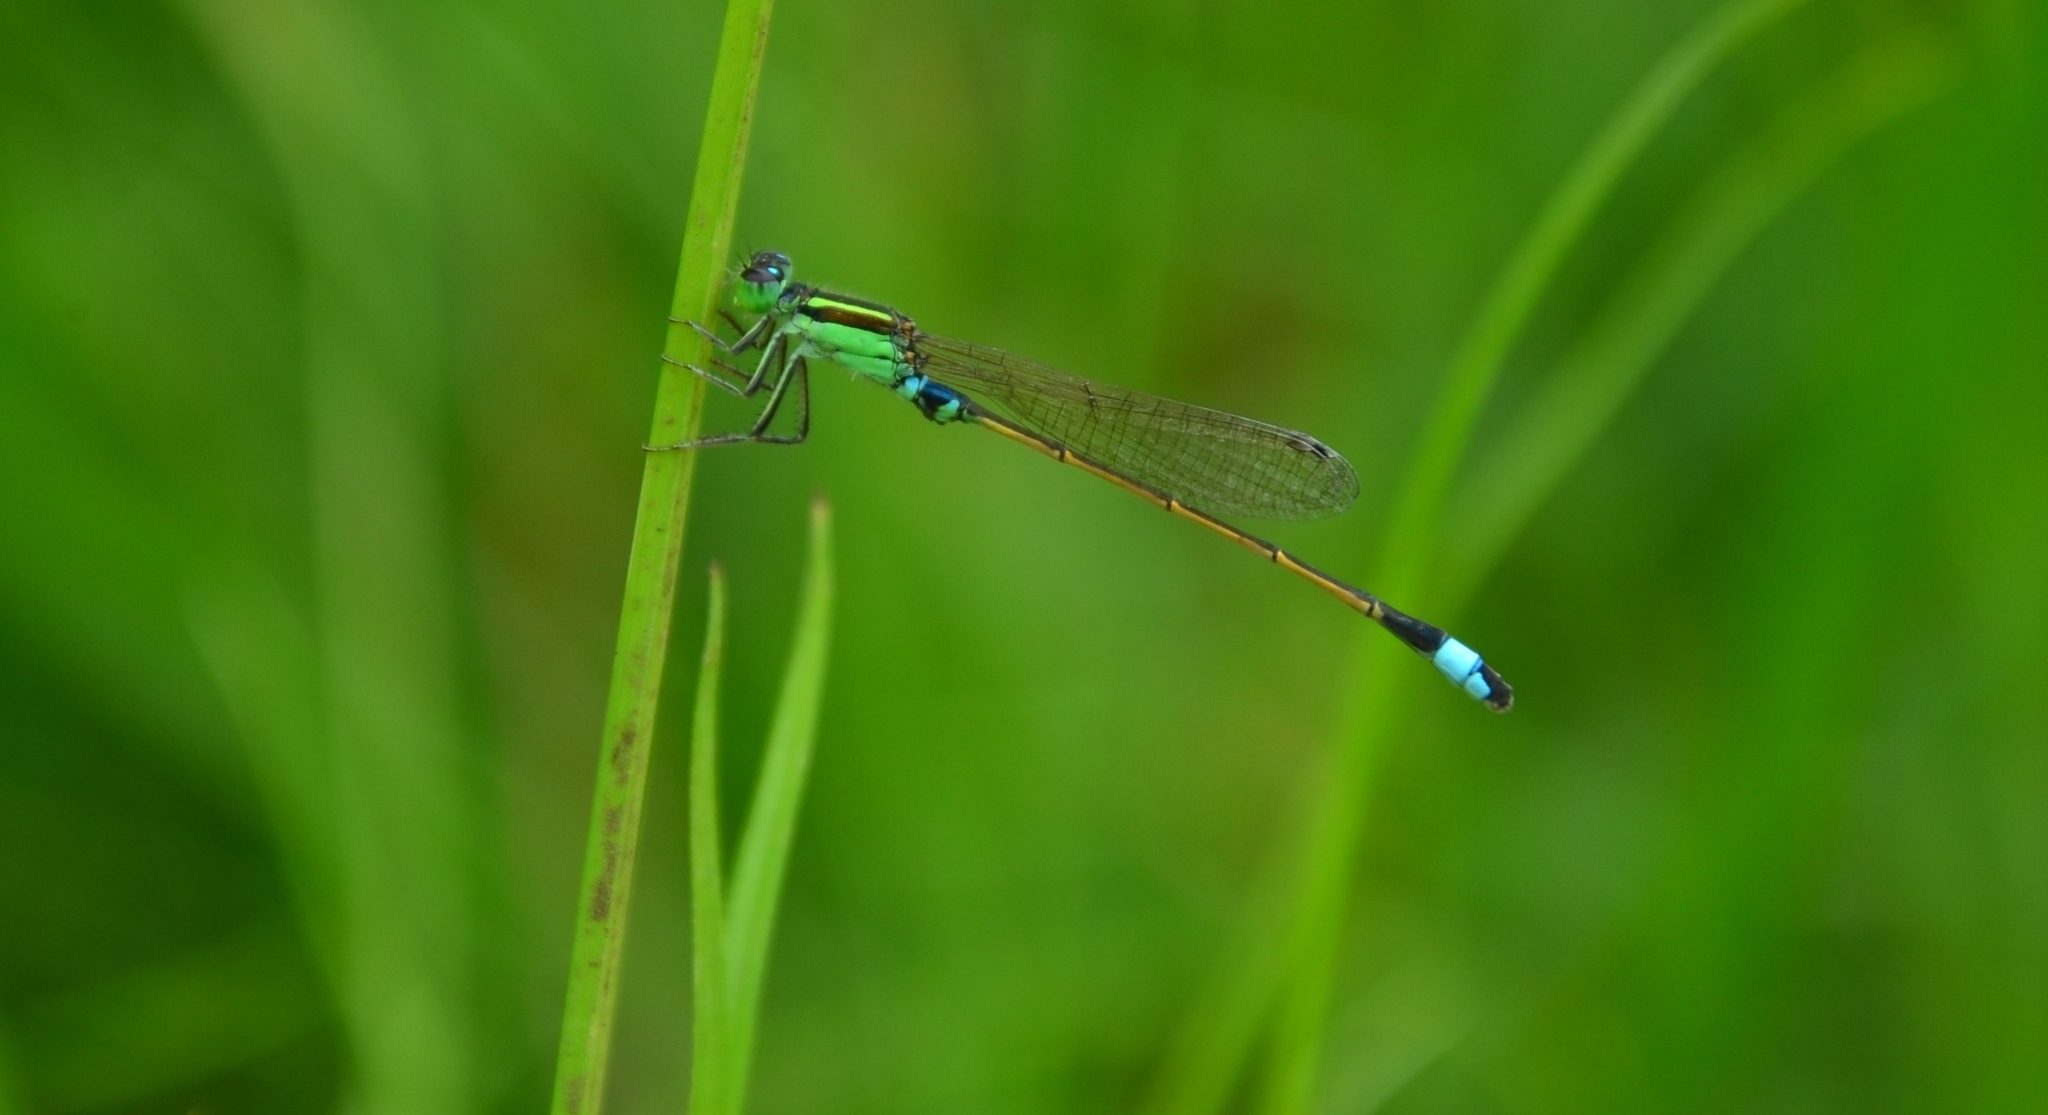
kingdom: Animalia
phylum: Arthropoda
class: Insecta
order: Odonata
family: Coenagrionidae
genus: Ischnura
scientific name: Ischnura senegalensis
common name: Tropical bluetail
